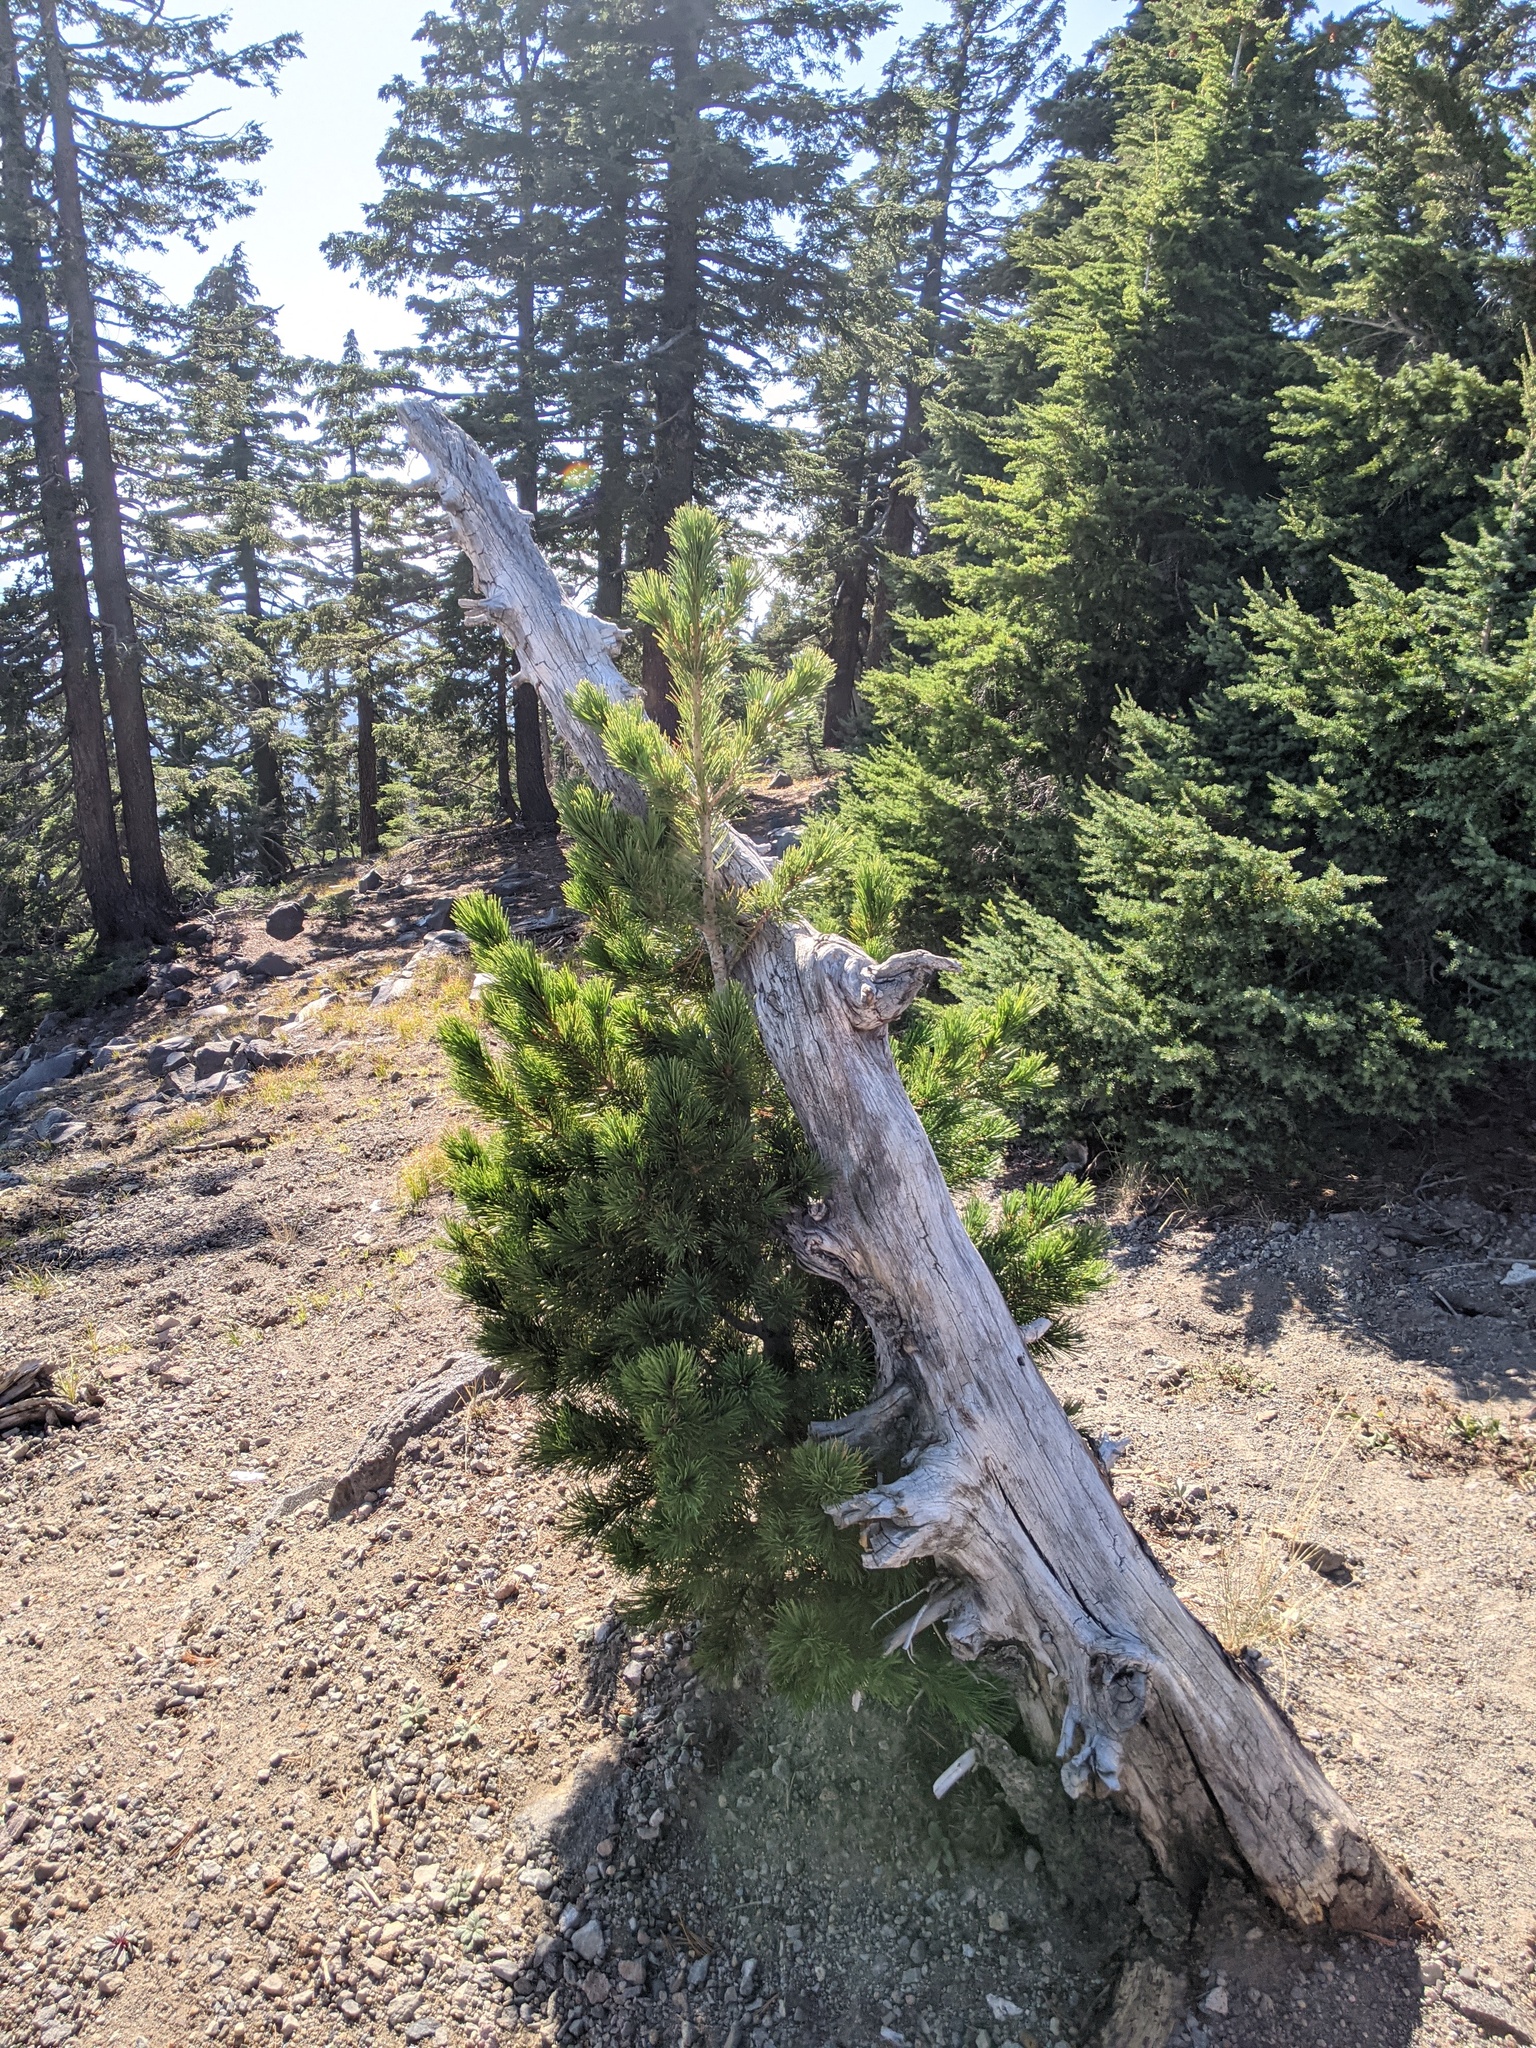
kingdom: Plantae
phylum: Tracheophyta
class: Pinopsida
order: Pinales
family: Pinaceae
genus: Pinus
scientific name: Pinus albicaulis
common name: Whitebark pine
